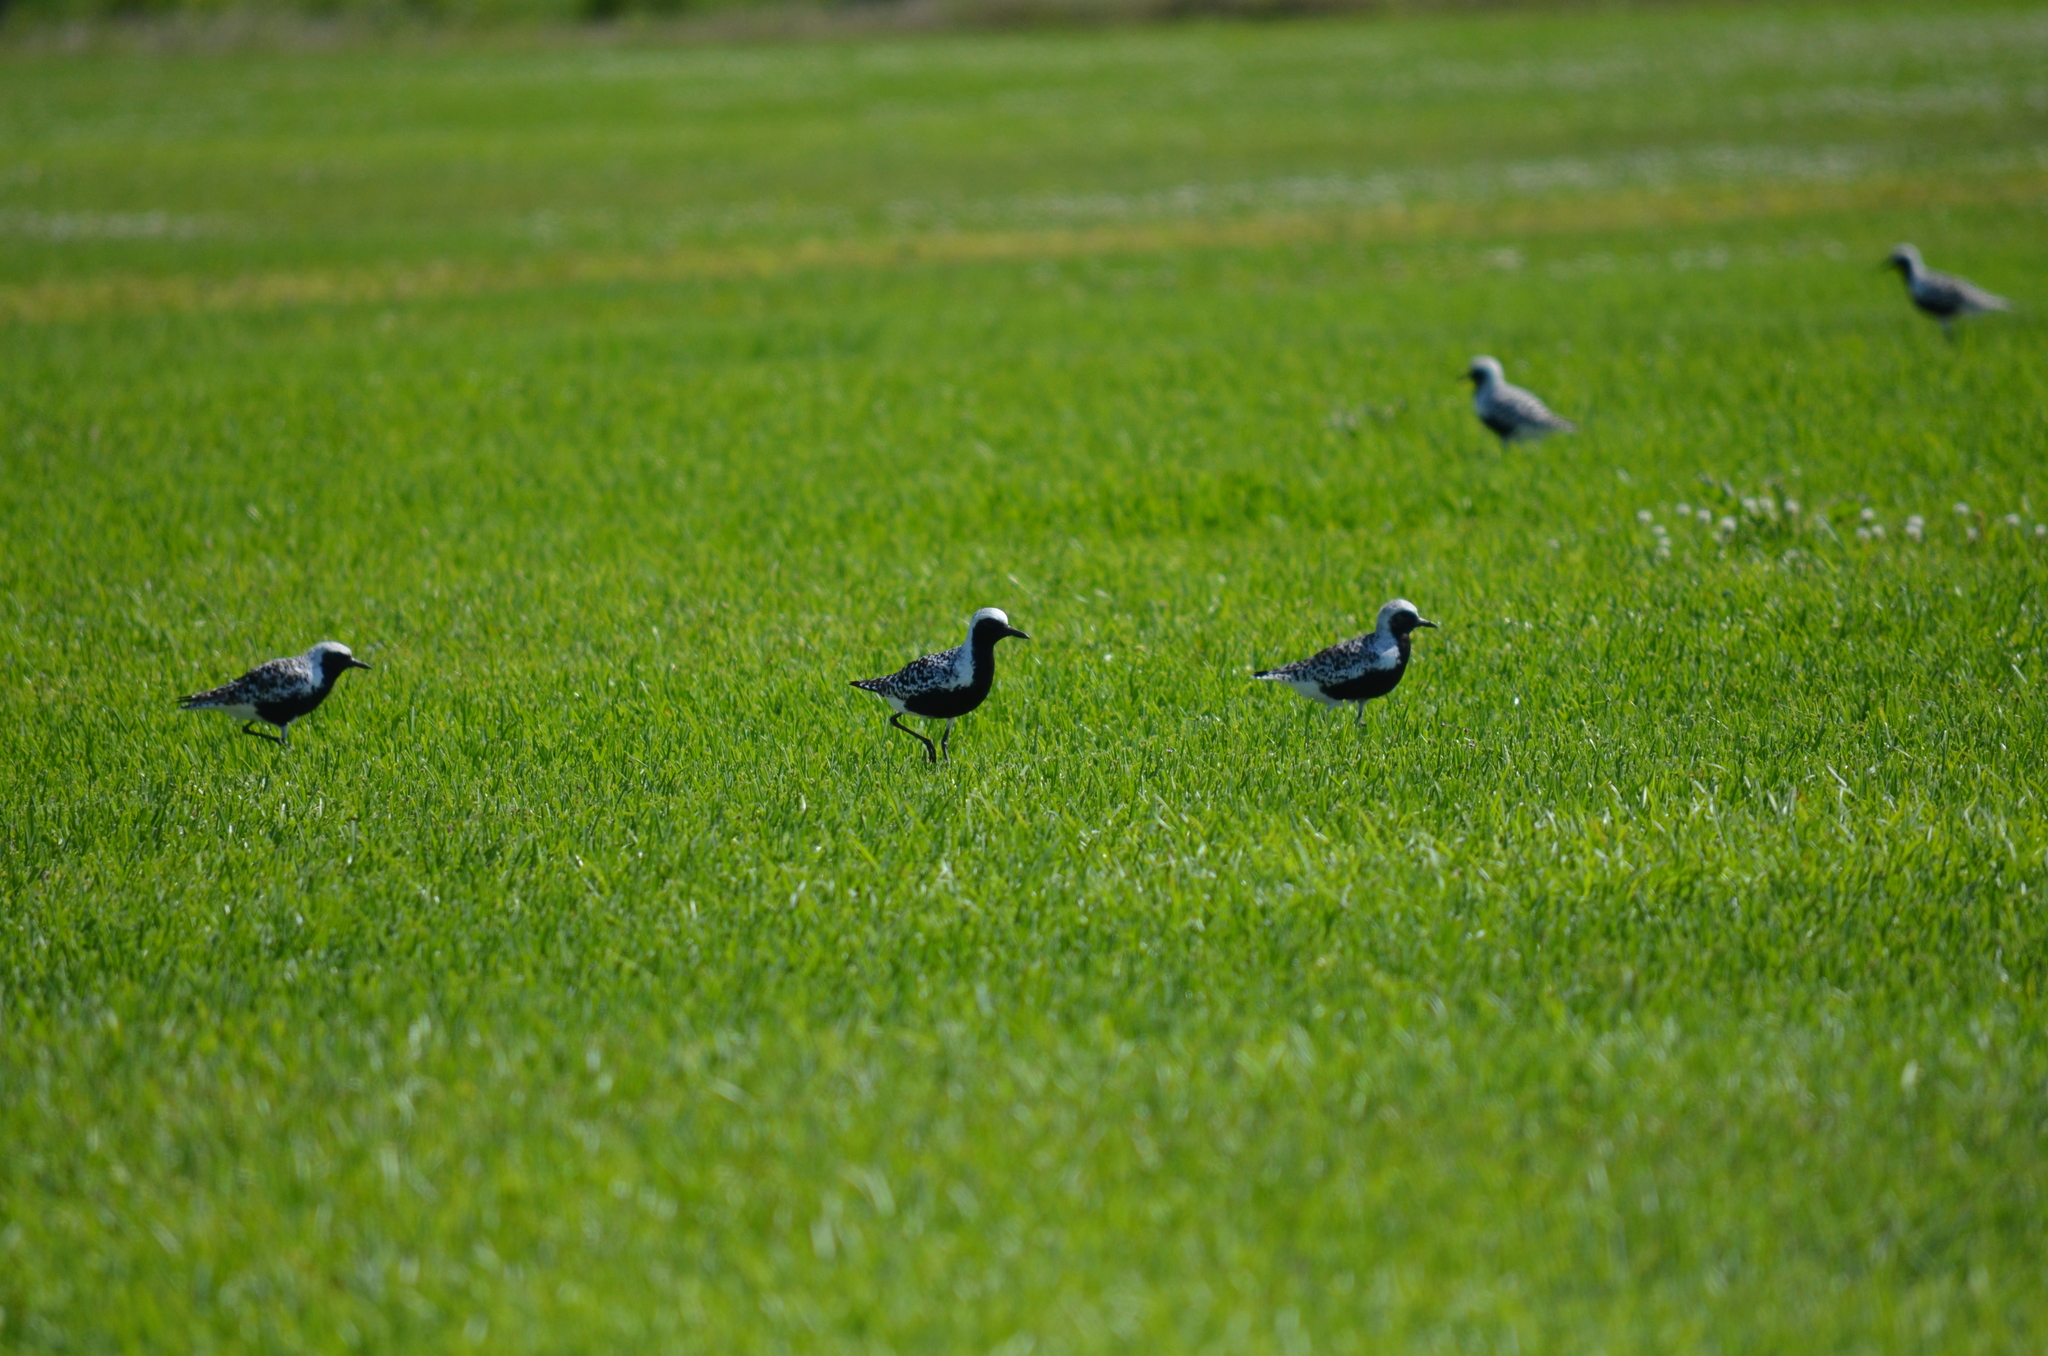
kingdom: Animalia
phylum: Chordata
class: Aves
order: Charadriiformes
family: Charadriidae
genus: Pluvialis
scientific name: Pluvialis squatarola
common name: Grey plover
